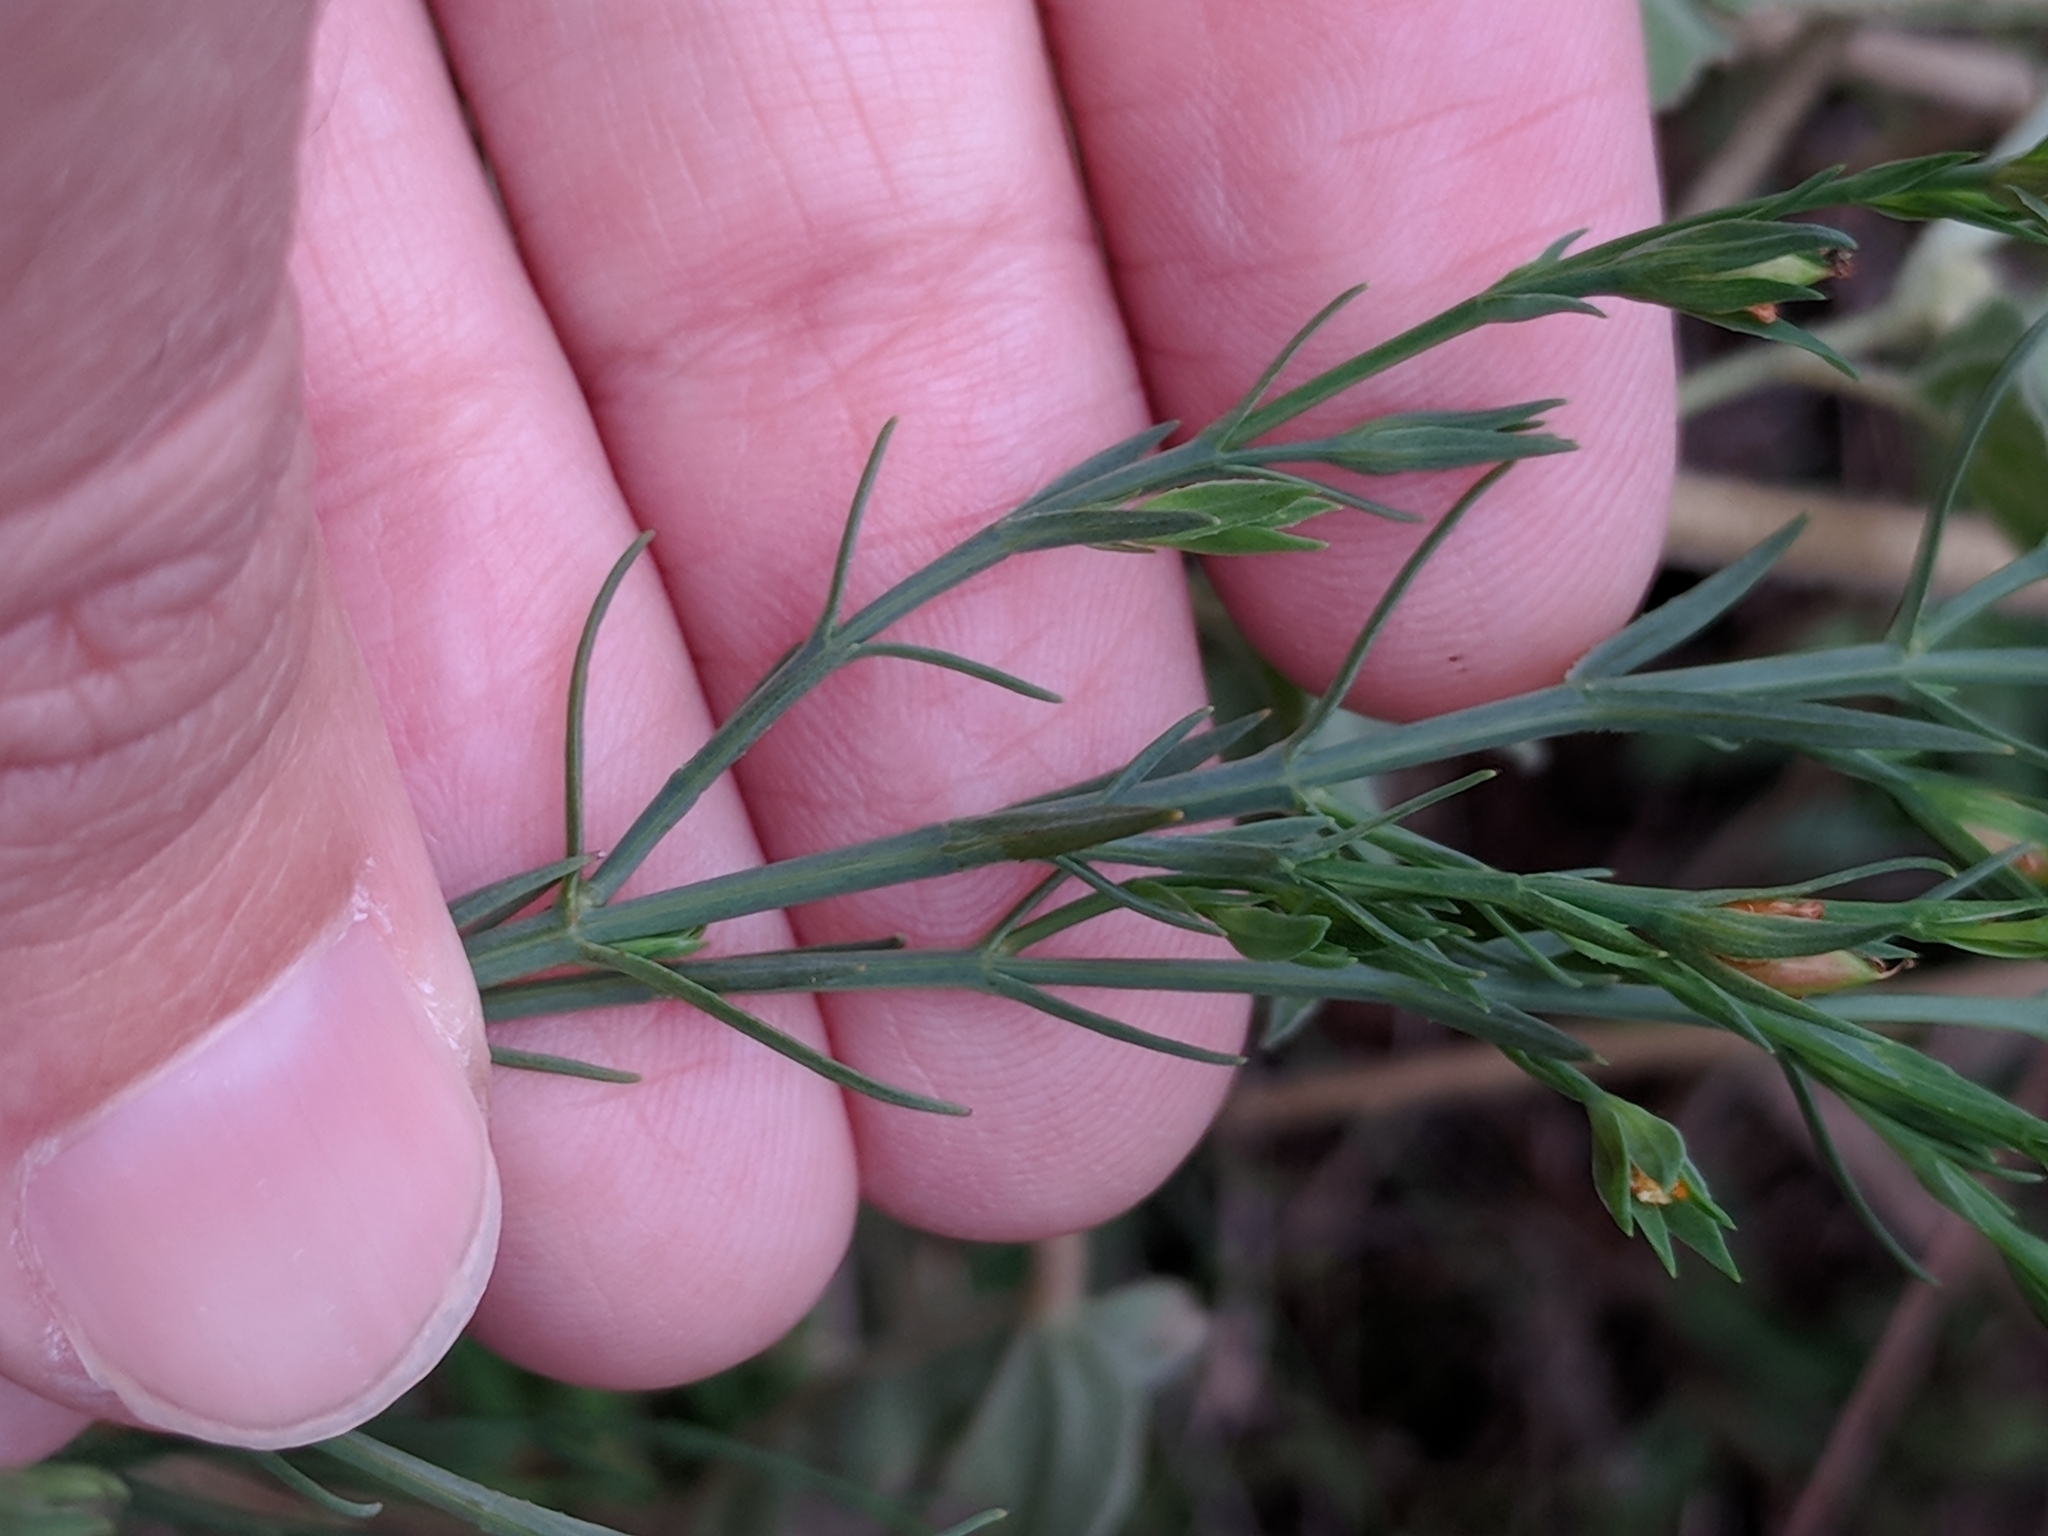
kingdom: Plantae
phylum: Tracheophyta
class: Magnoliopsida
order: Malpighiales
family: Hypericaceae
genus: Hypericum
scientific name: Hypericum drummondii
